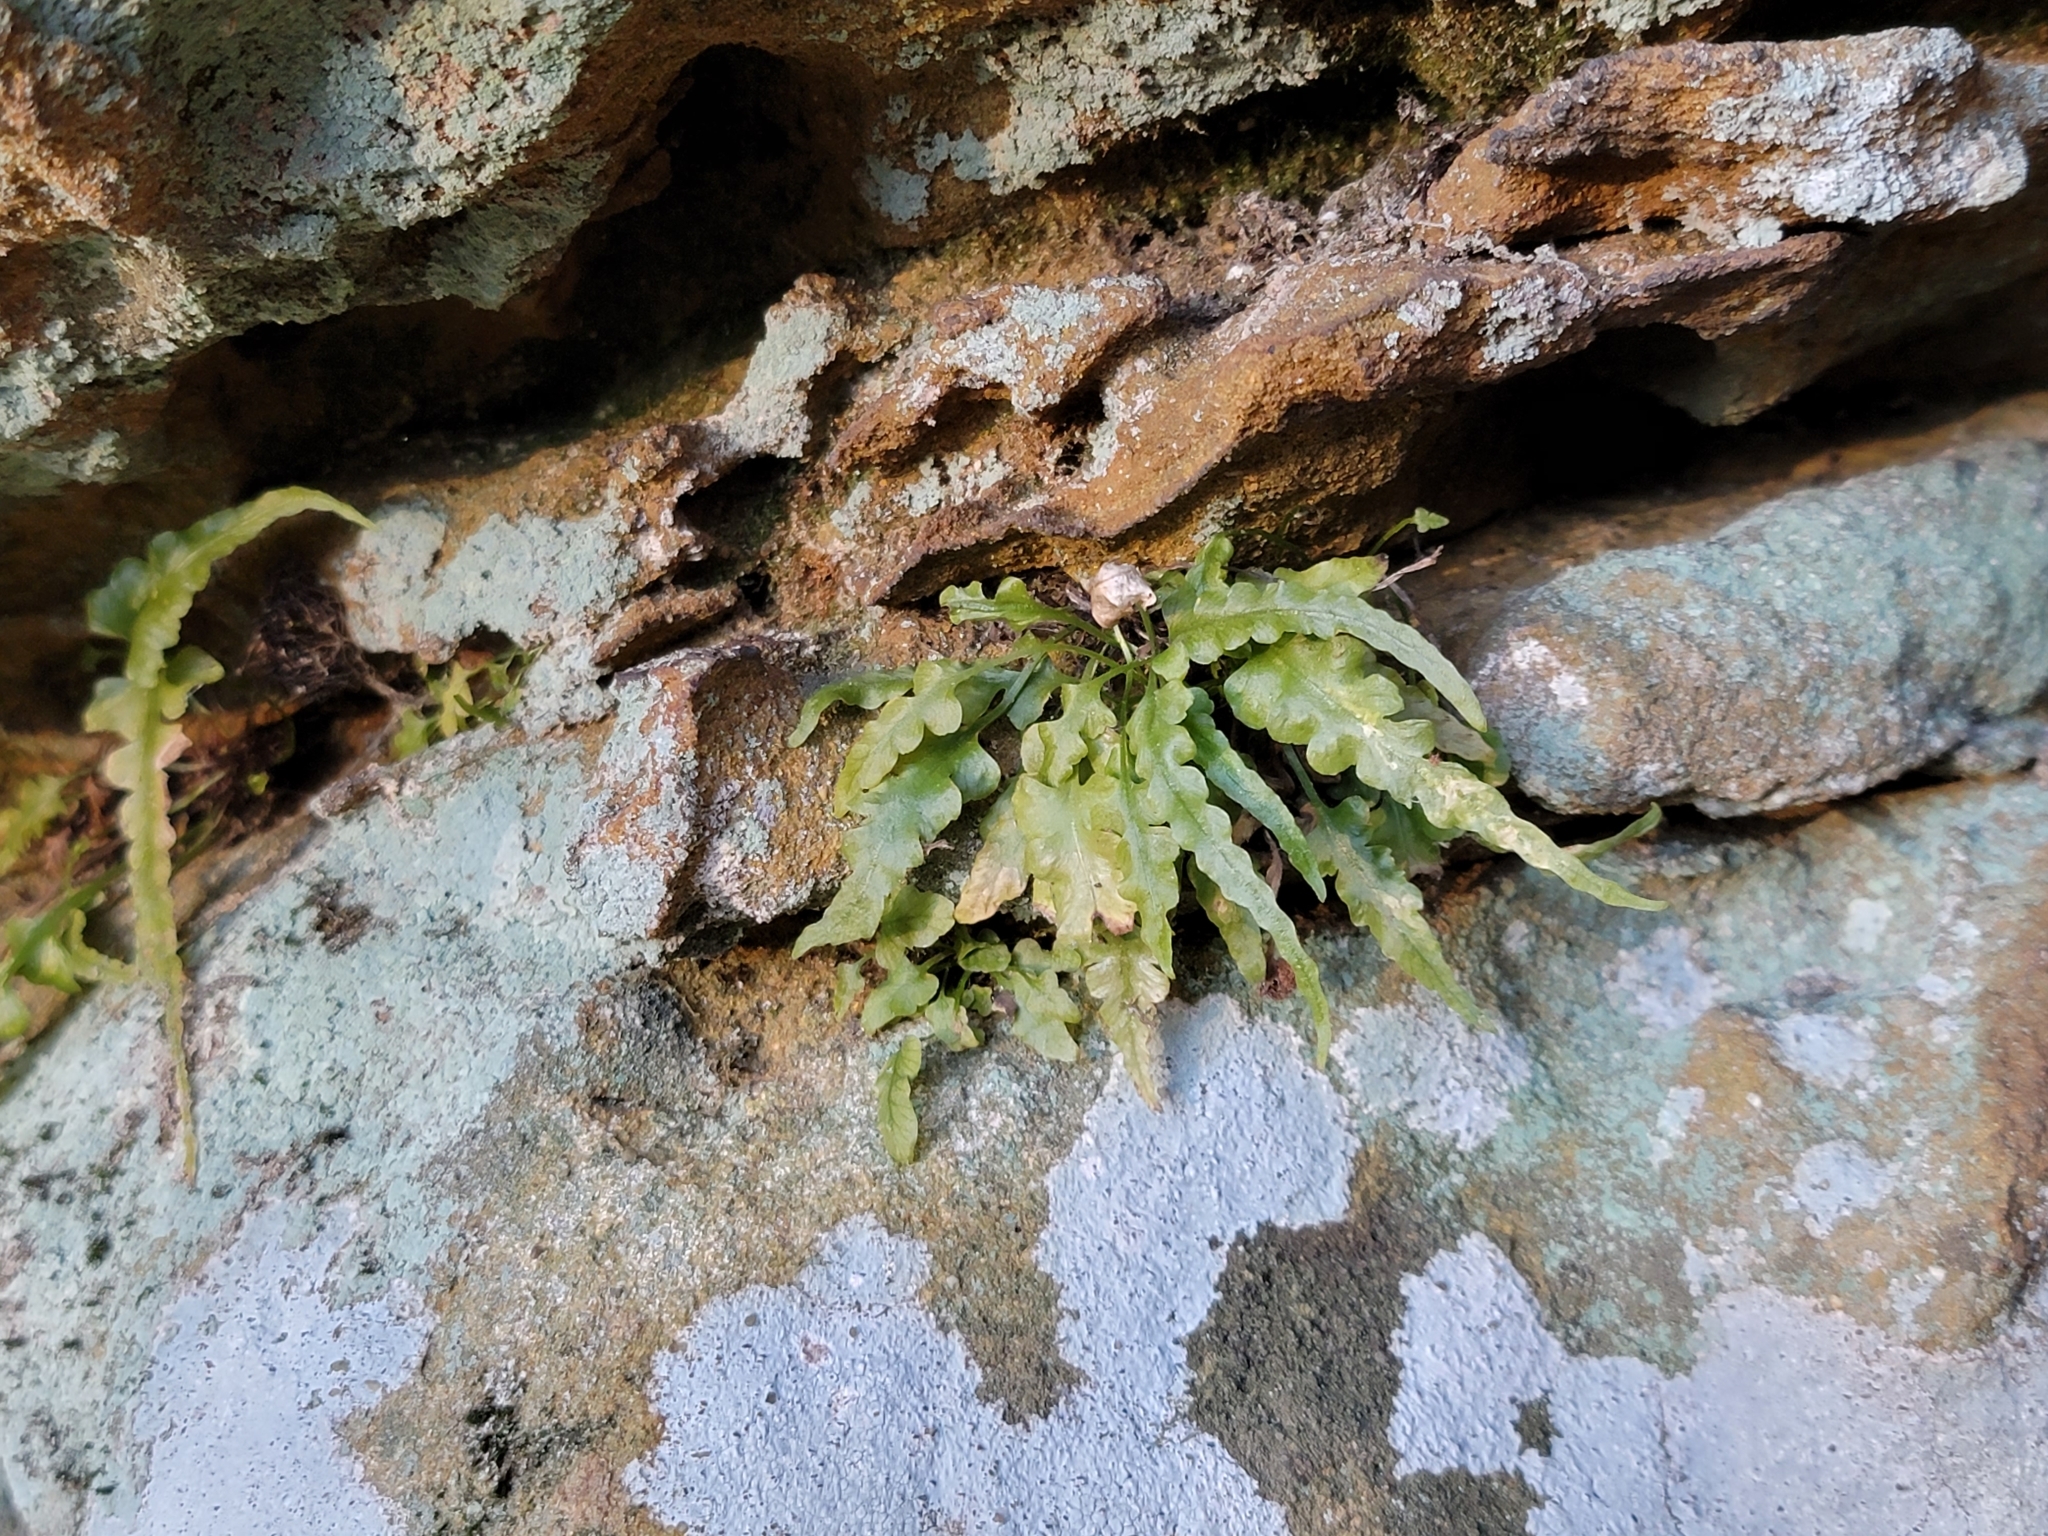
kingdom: Plantae
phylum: Tracheophyta
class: Polypodiopsida
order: Polypodiales
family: Aspleniaceae
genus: Asplenium
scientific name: Asplenium pinnatifidum
